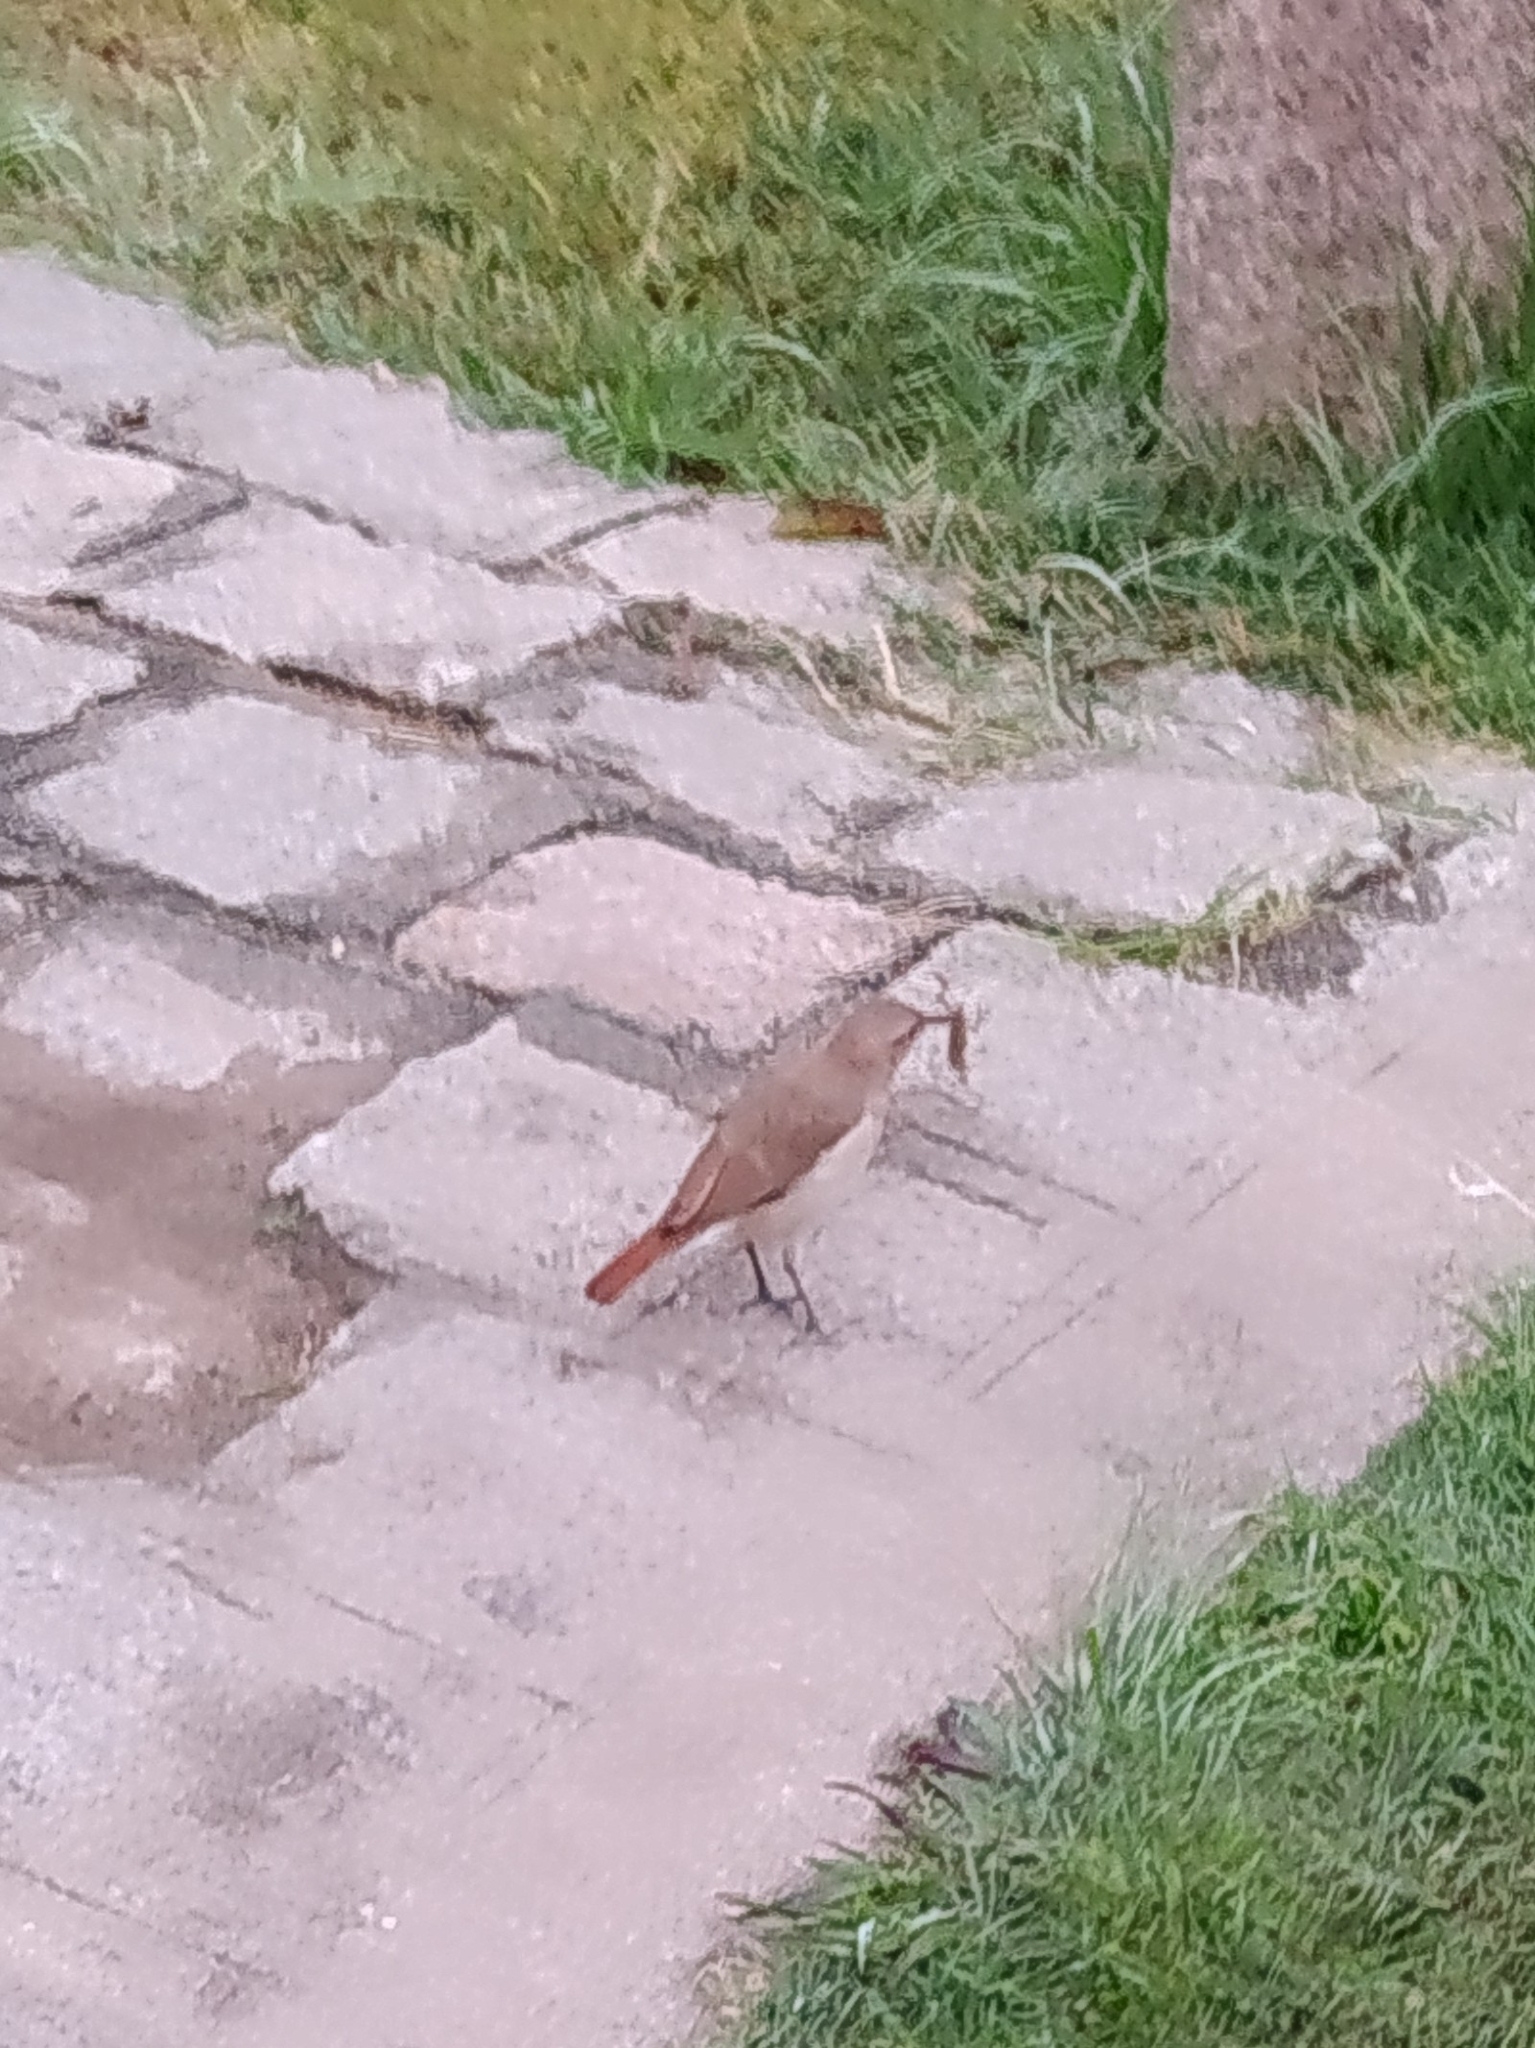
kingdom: Animalia
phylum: Chordata
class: Aves
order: Passeriformes
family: Furnariidae
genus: Furnarius
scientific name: Furnarius rufus
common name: Rufous hornero
